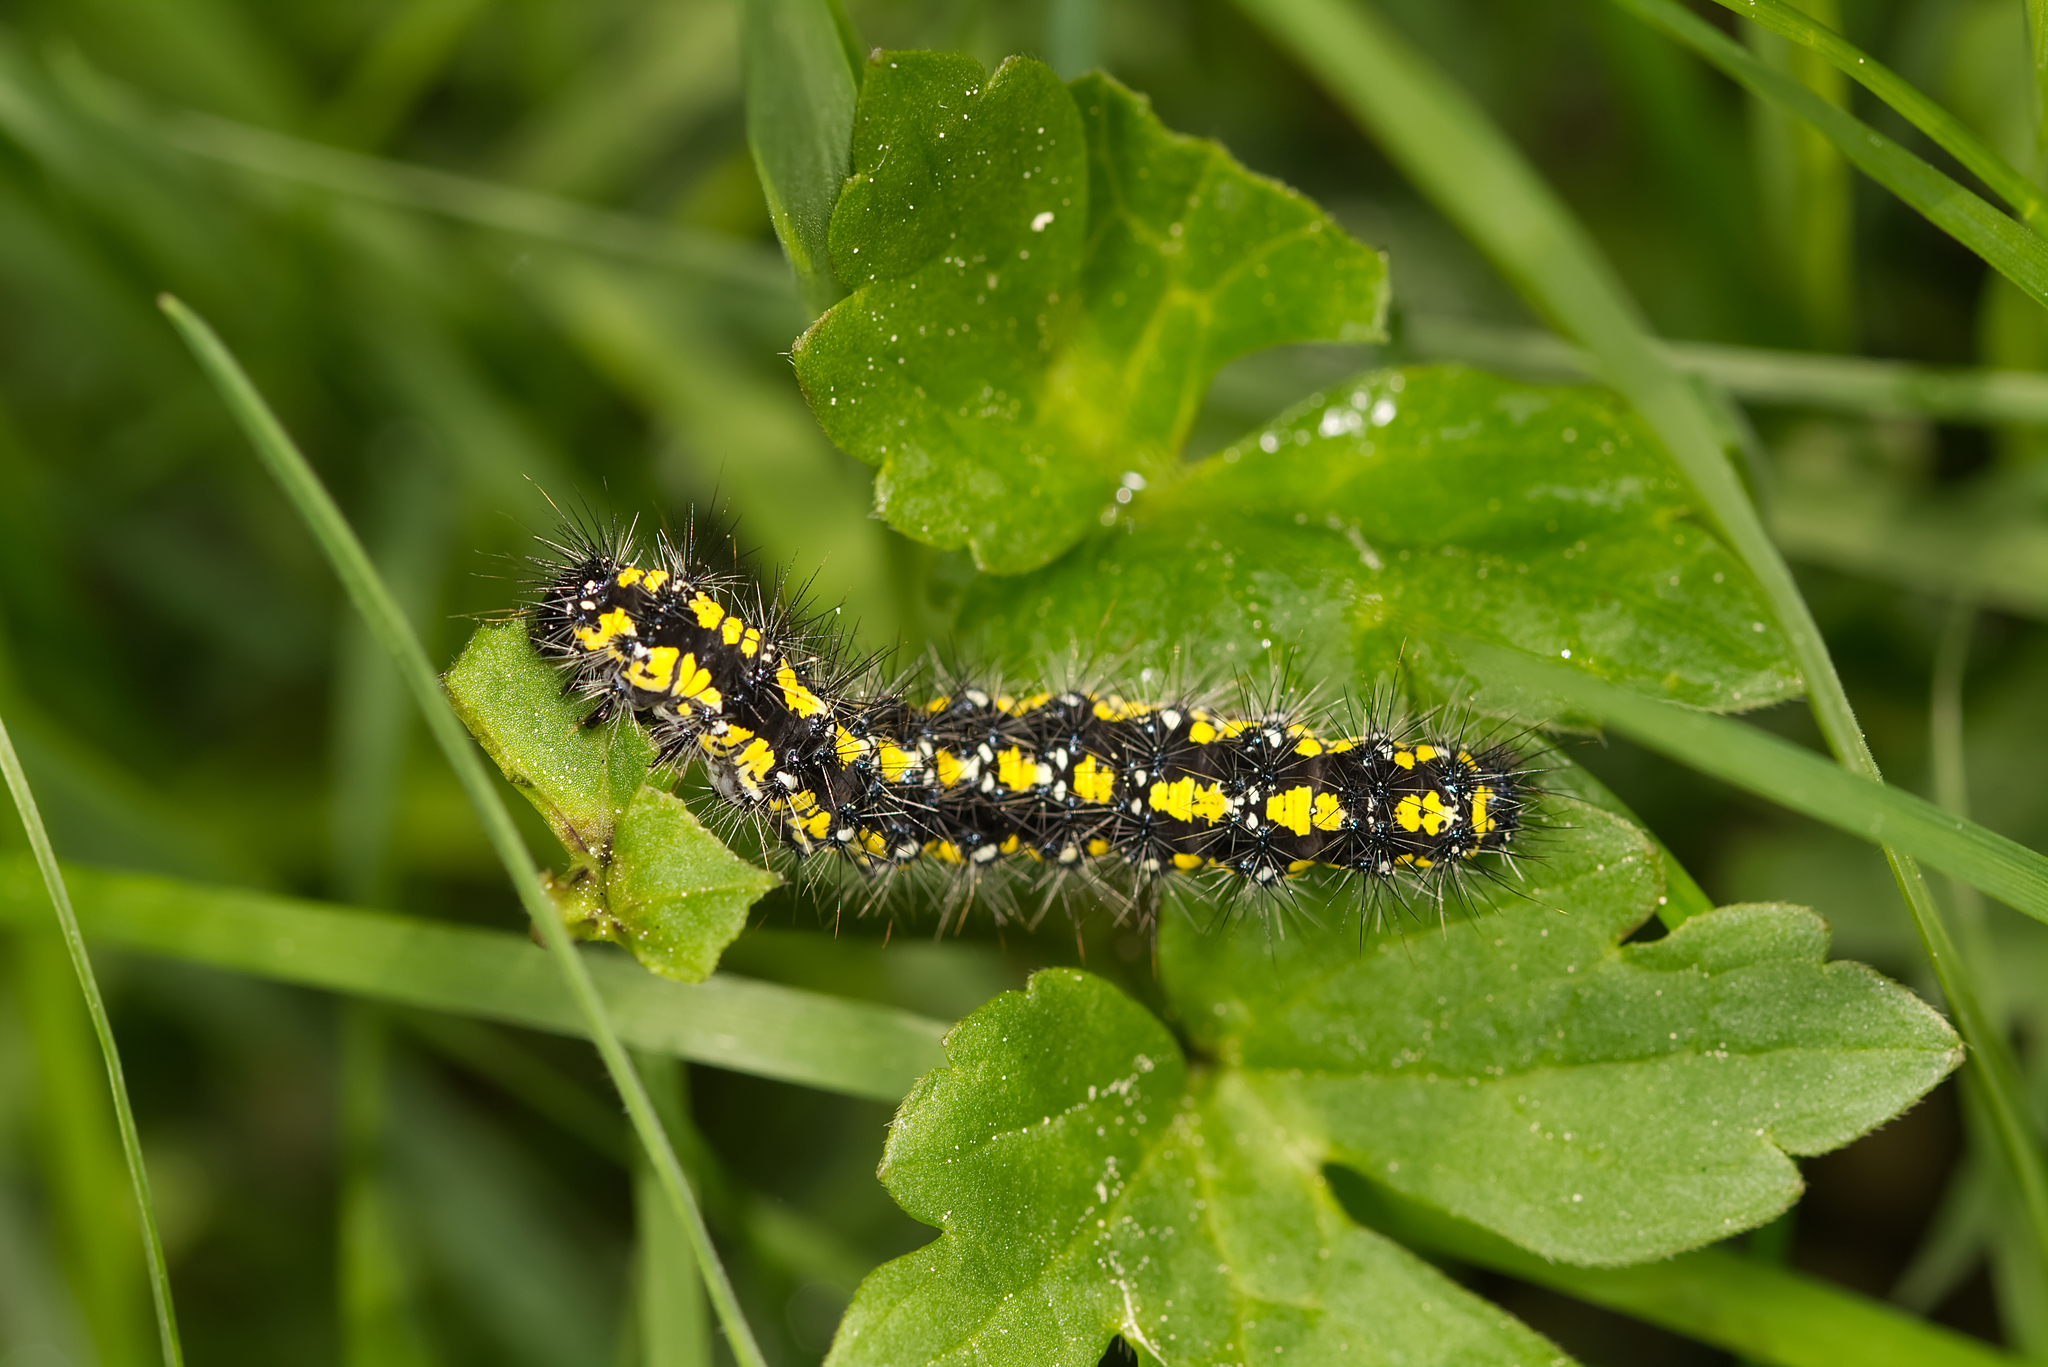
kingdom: Animalia
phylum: Arthropoda
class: Insecta
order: Lepidoptera
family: Erebidae
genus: Callimorpha
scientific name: Callimorpha dominula
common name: Scarlet tiger
